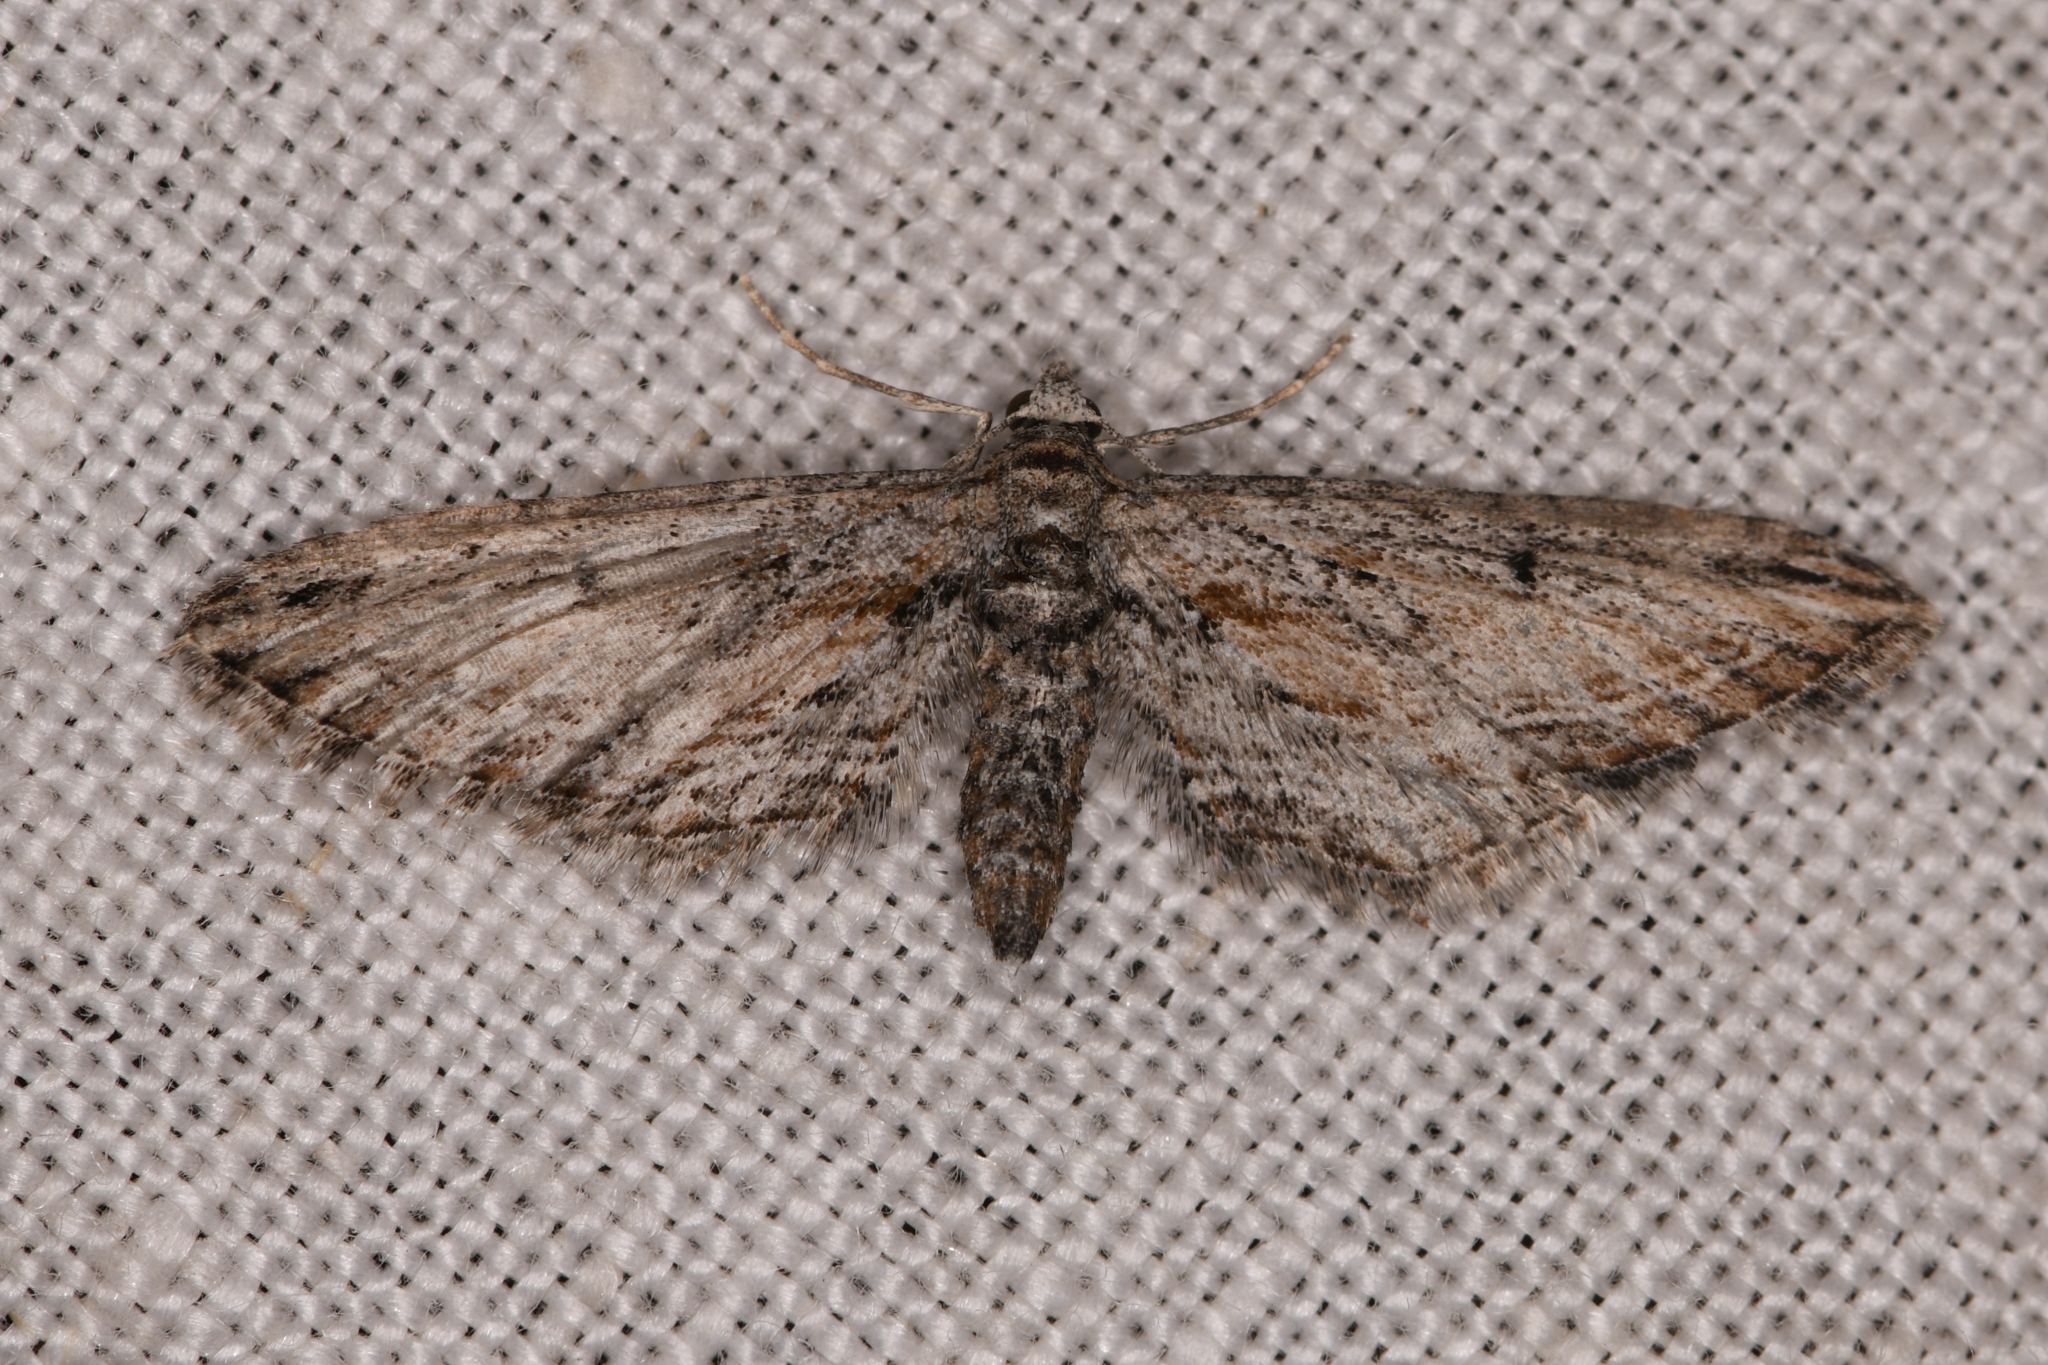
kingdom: Animalia
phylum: Arthropoda
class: Insecta
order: Lepidoptera
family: Geometridae
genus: Eupithecia
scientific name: Eupithecia acutipennis
